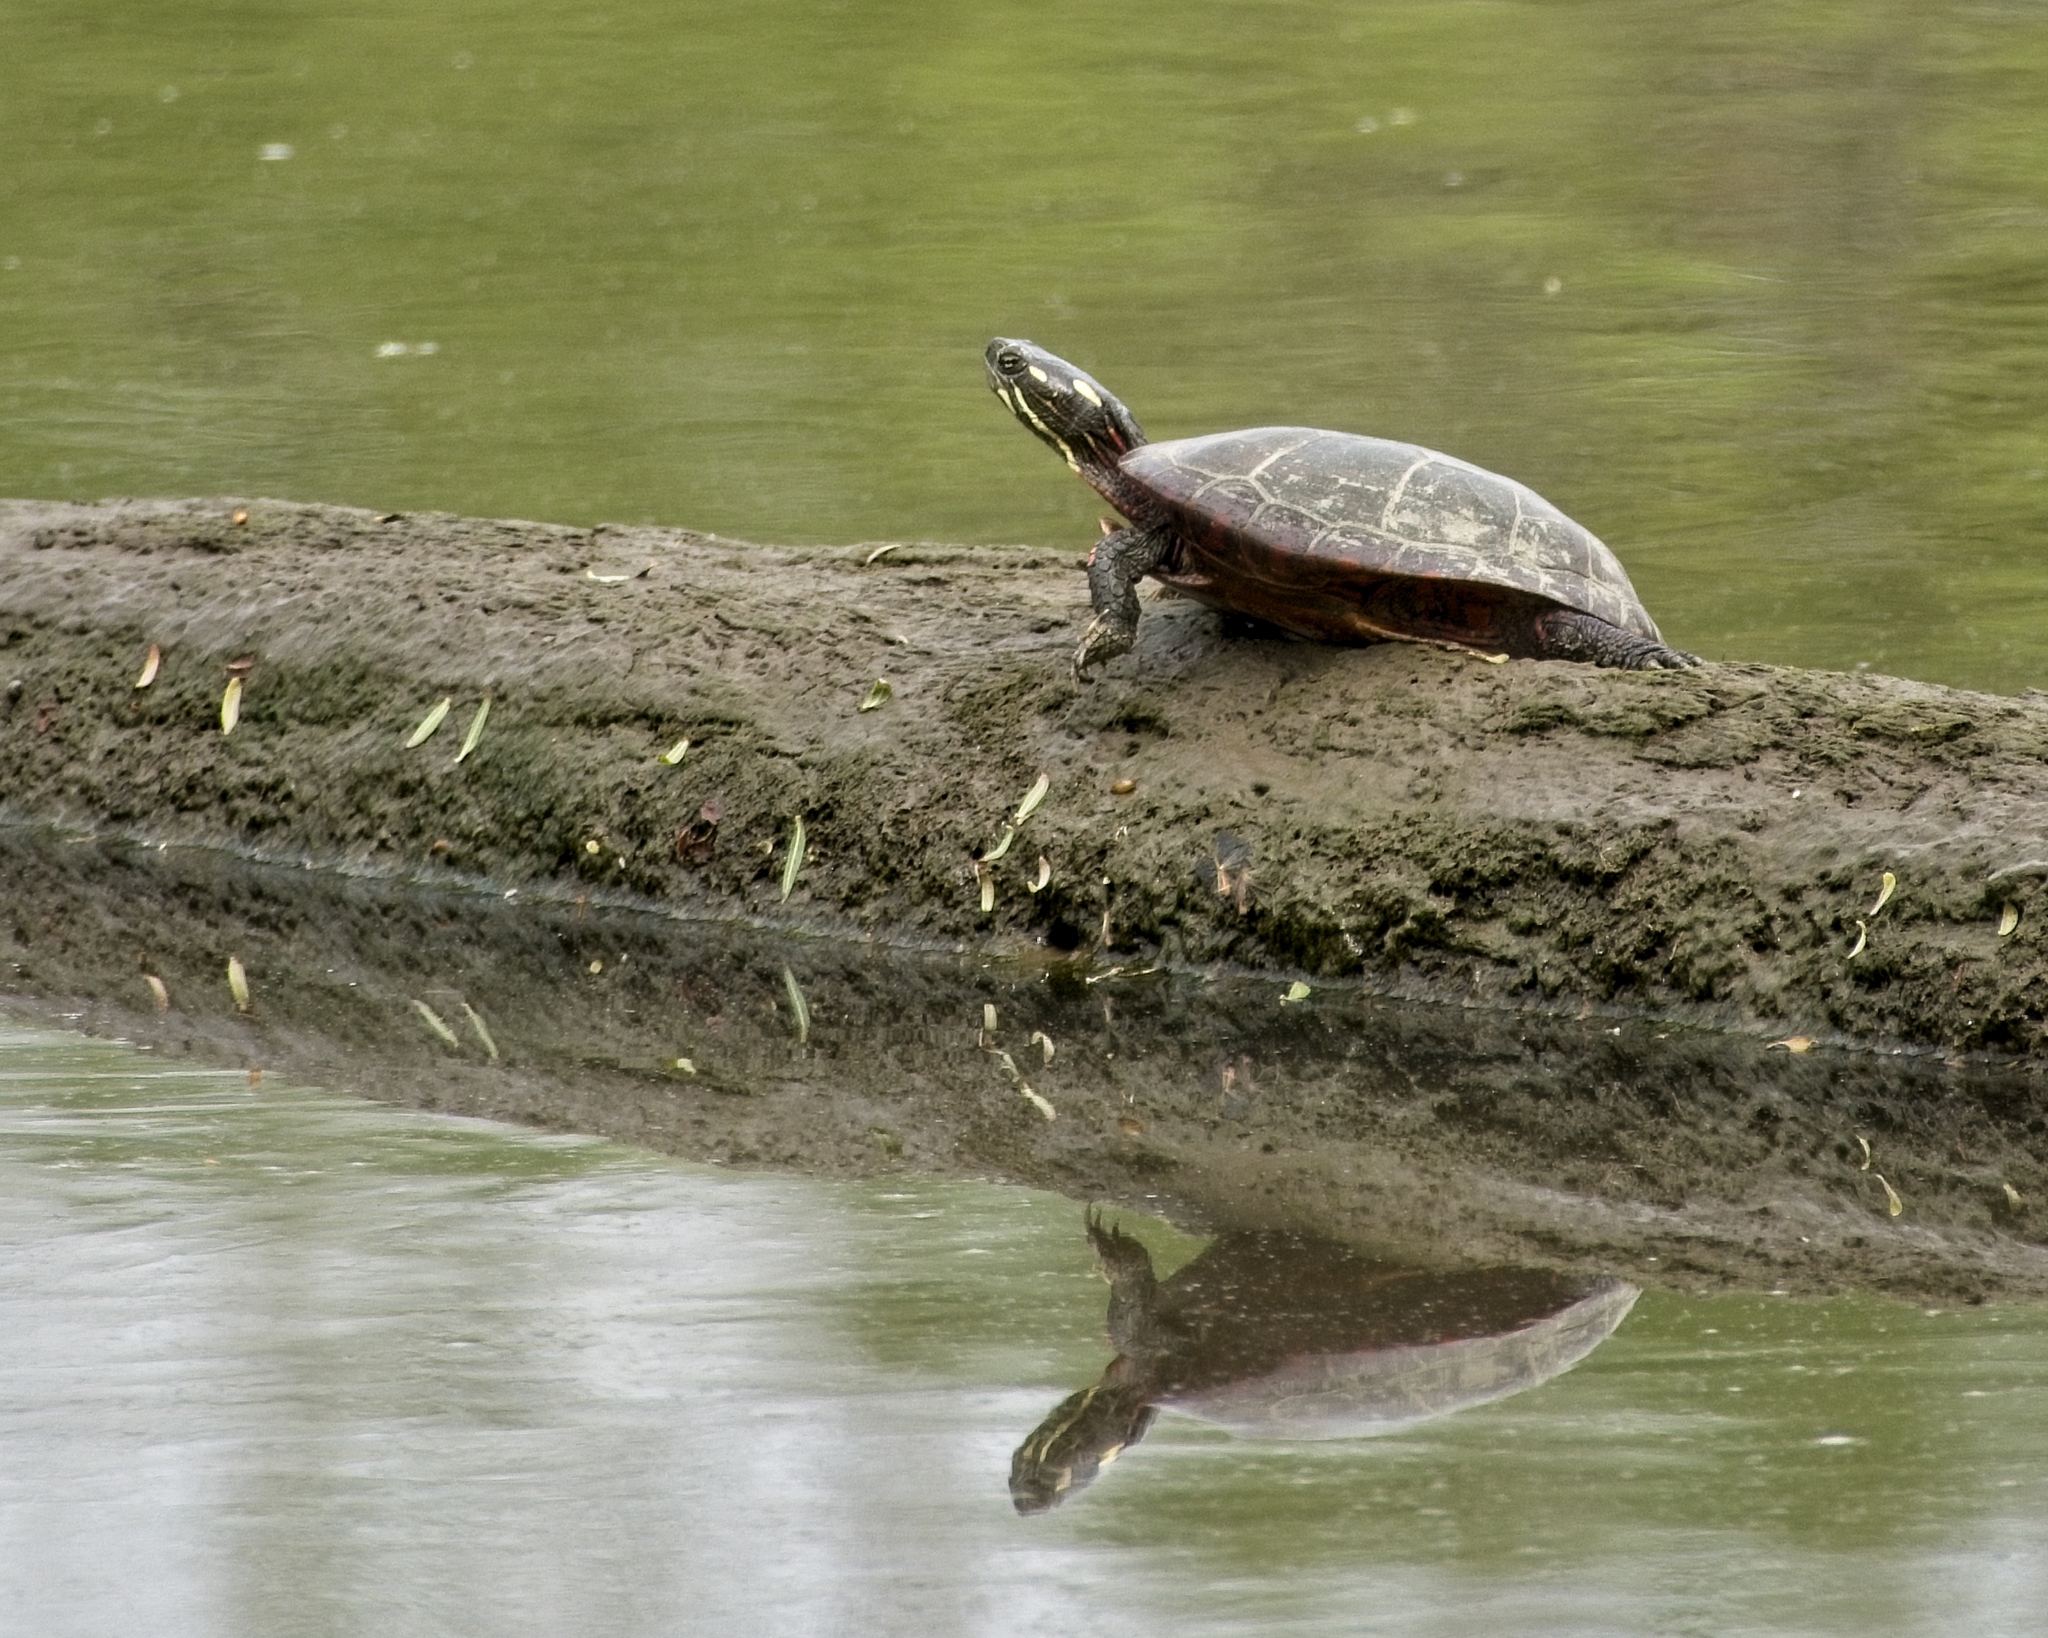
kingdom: Animalia
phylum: Chordata
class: Testudines
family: Emydidae
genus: Chrysemys
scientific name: Chrysemys picta
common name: Painted turtle
